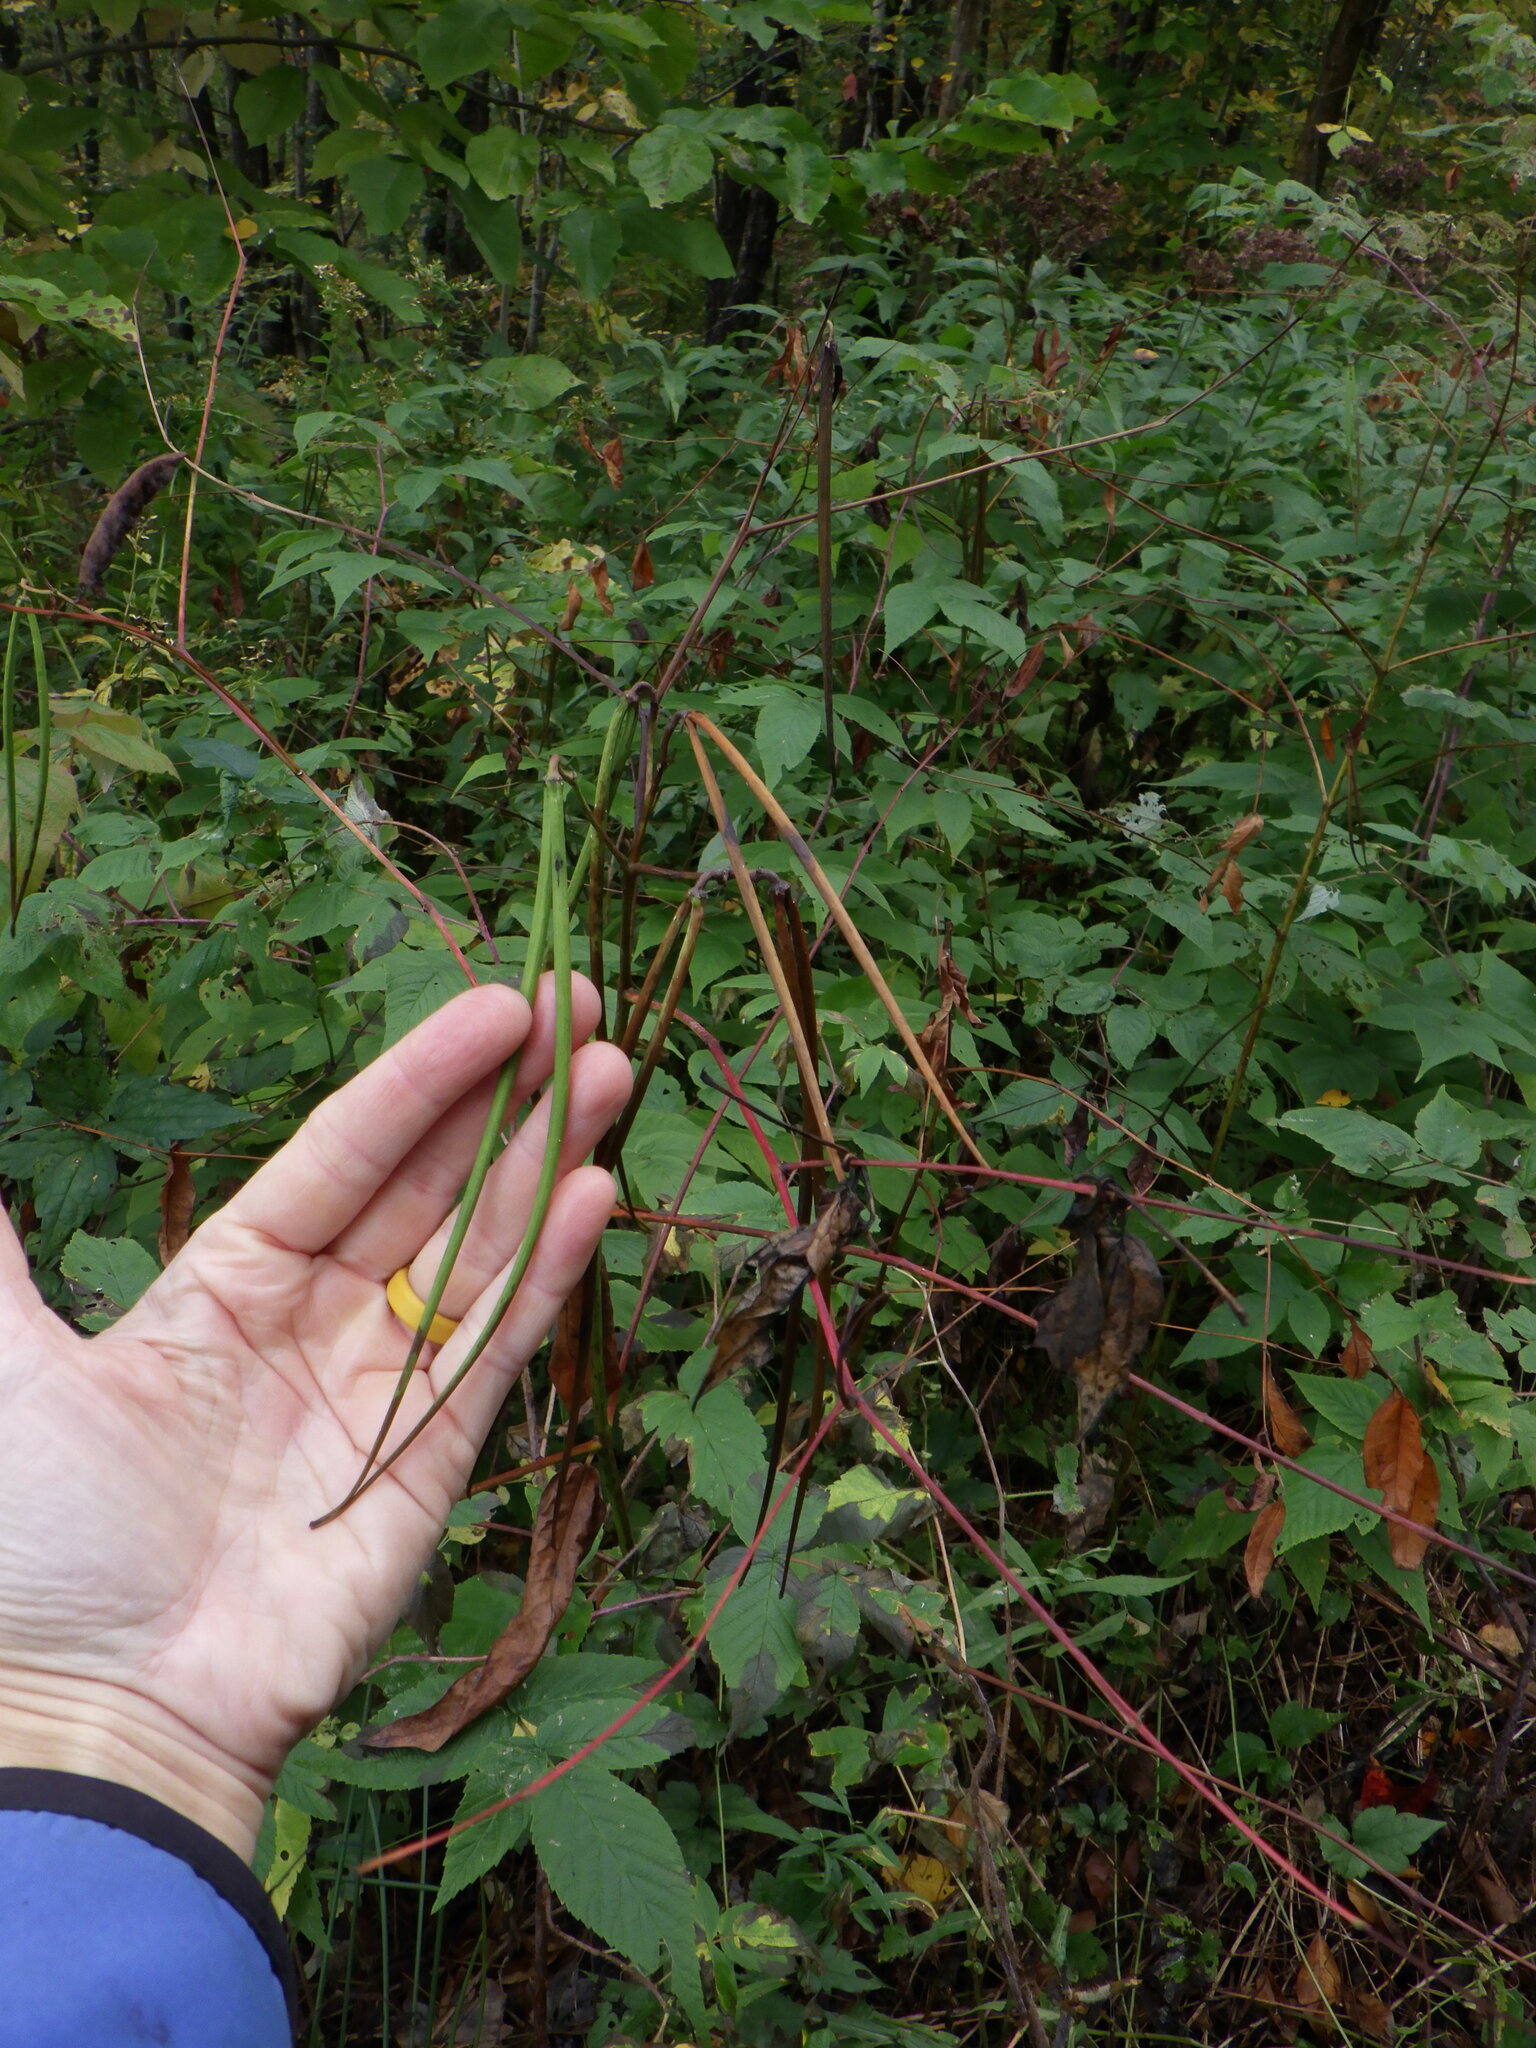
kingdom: Plantae
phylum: Tracheophyta
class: Magnoliopsida
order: Gentianales
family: Apocynaceae
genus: Apocynum
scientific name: Apocynum cannabinum
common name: Hemp dogbane
